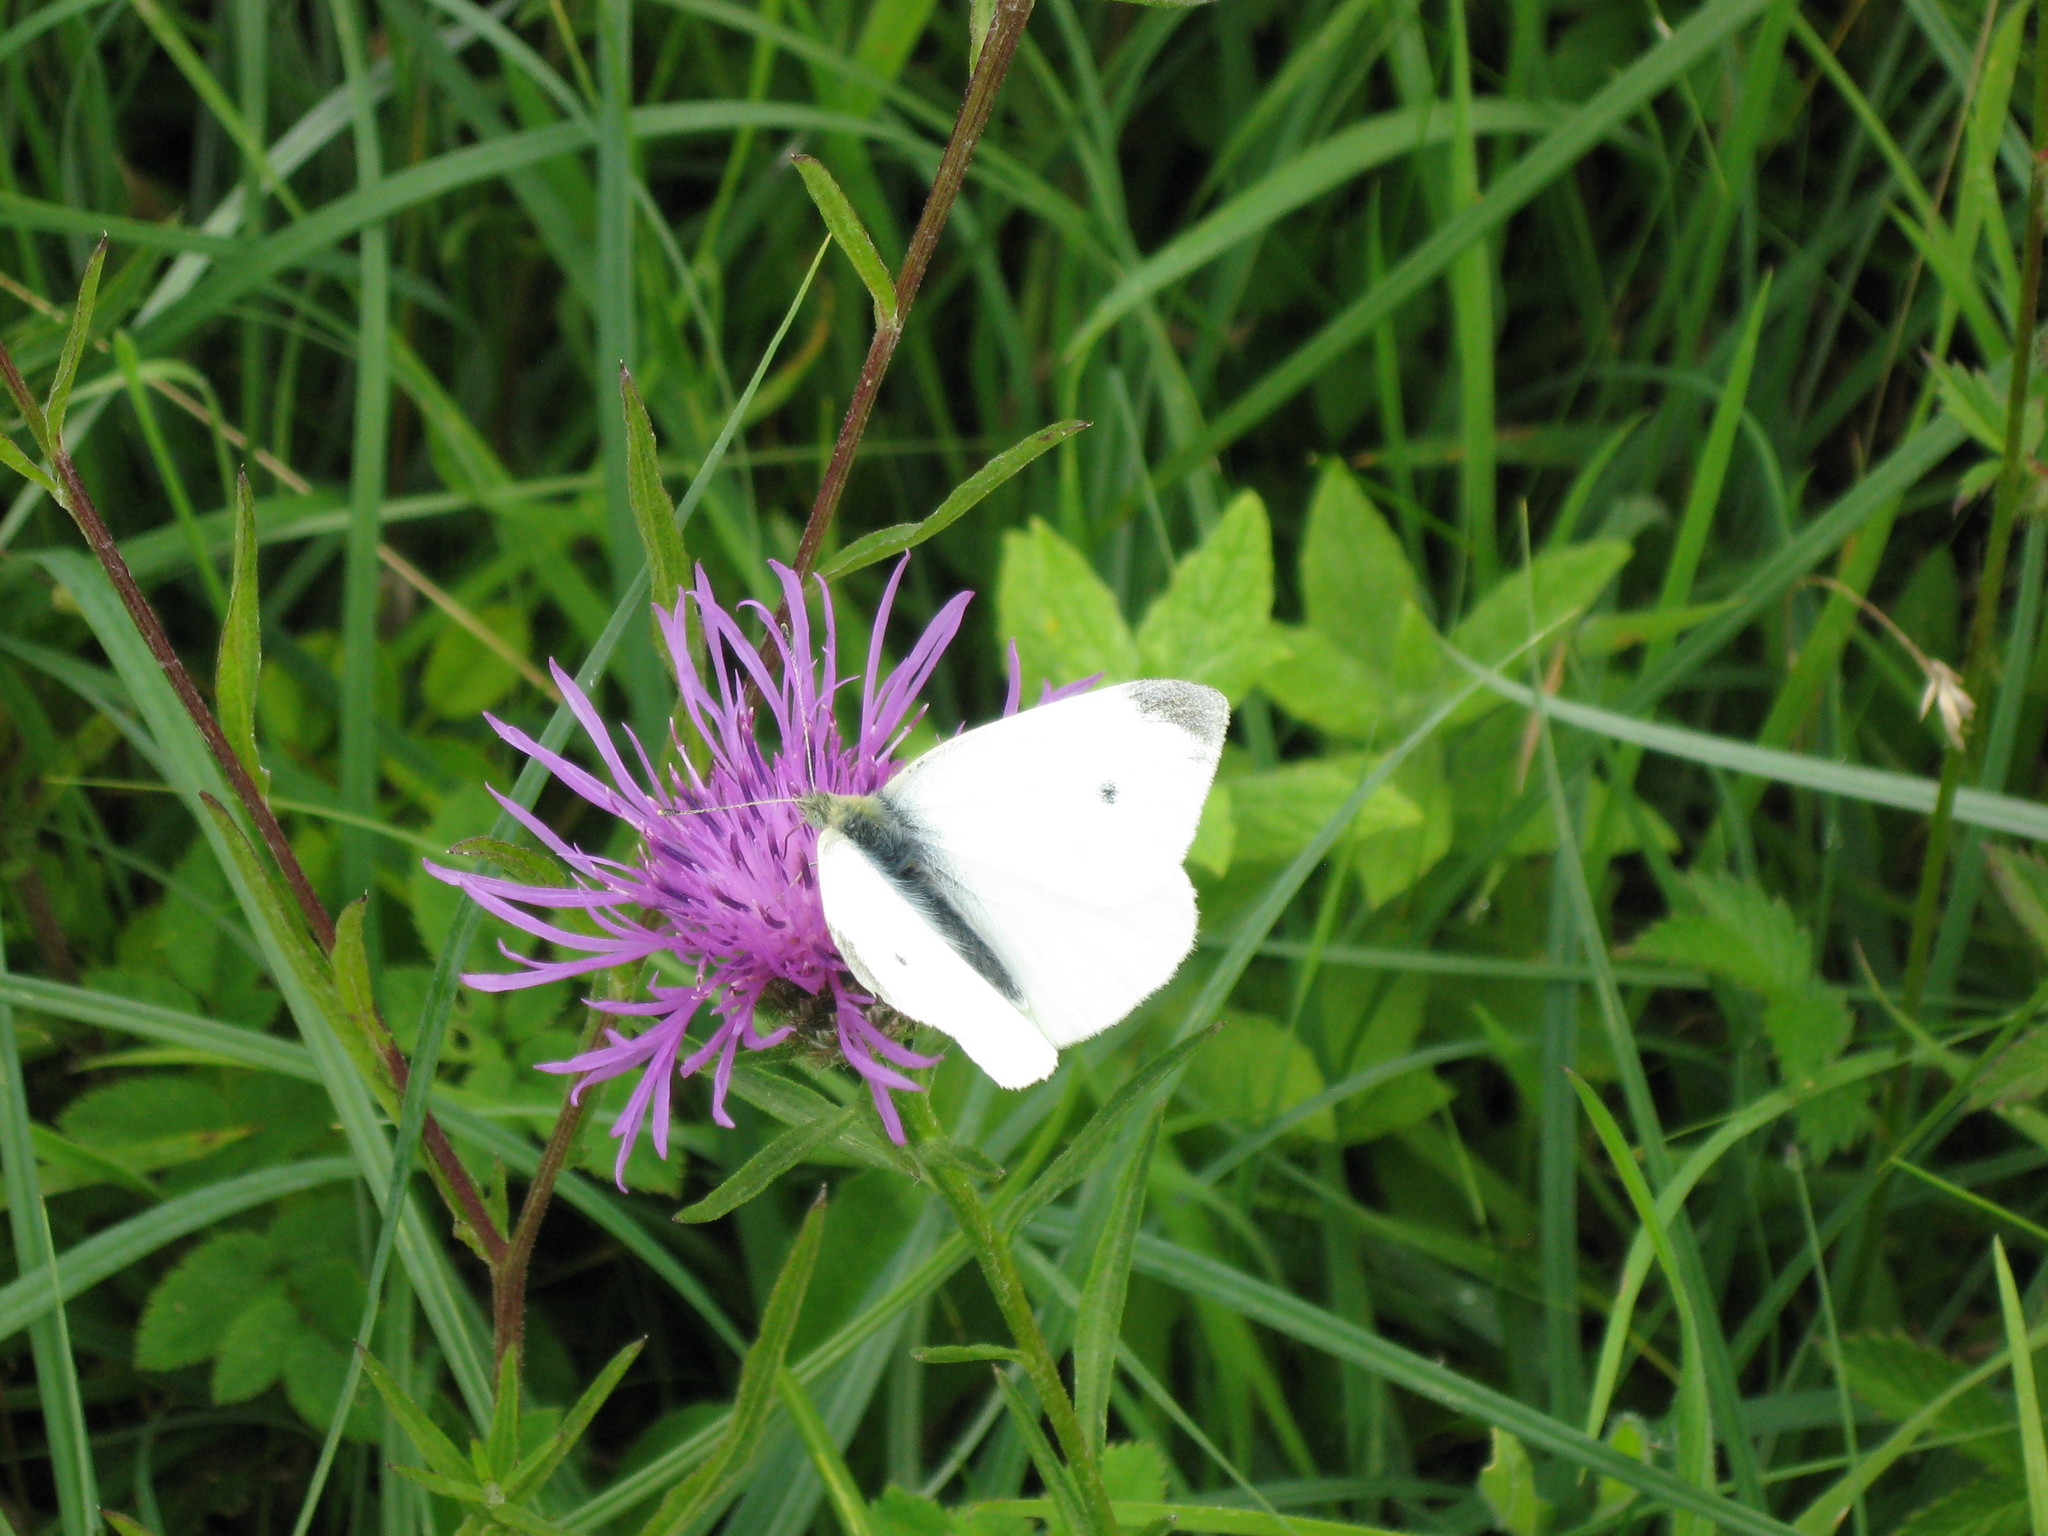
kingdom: Animalia
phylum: Arthropoda
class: Insecta
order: Lepidoptera
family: Pieridae
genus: Pieris
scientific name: Pieris rapae
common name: Small white
